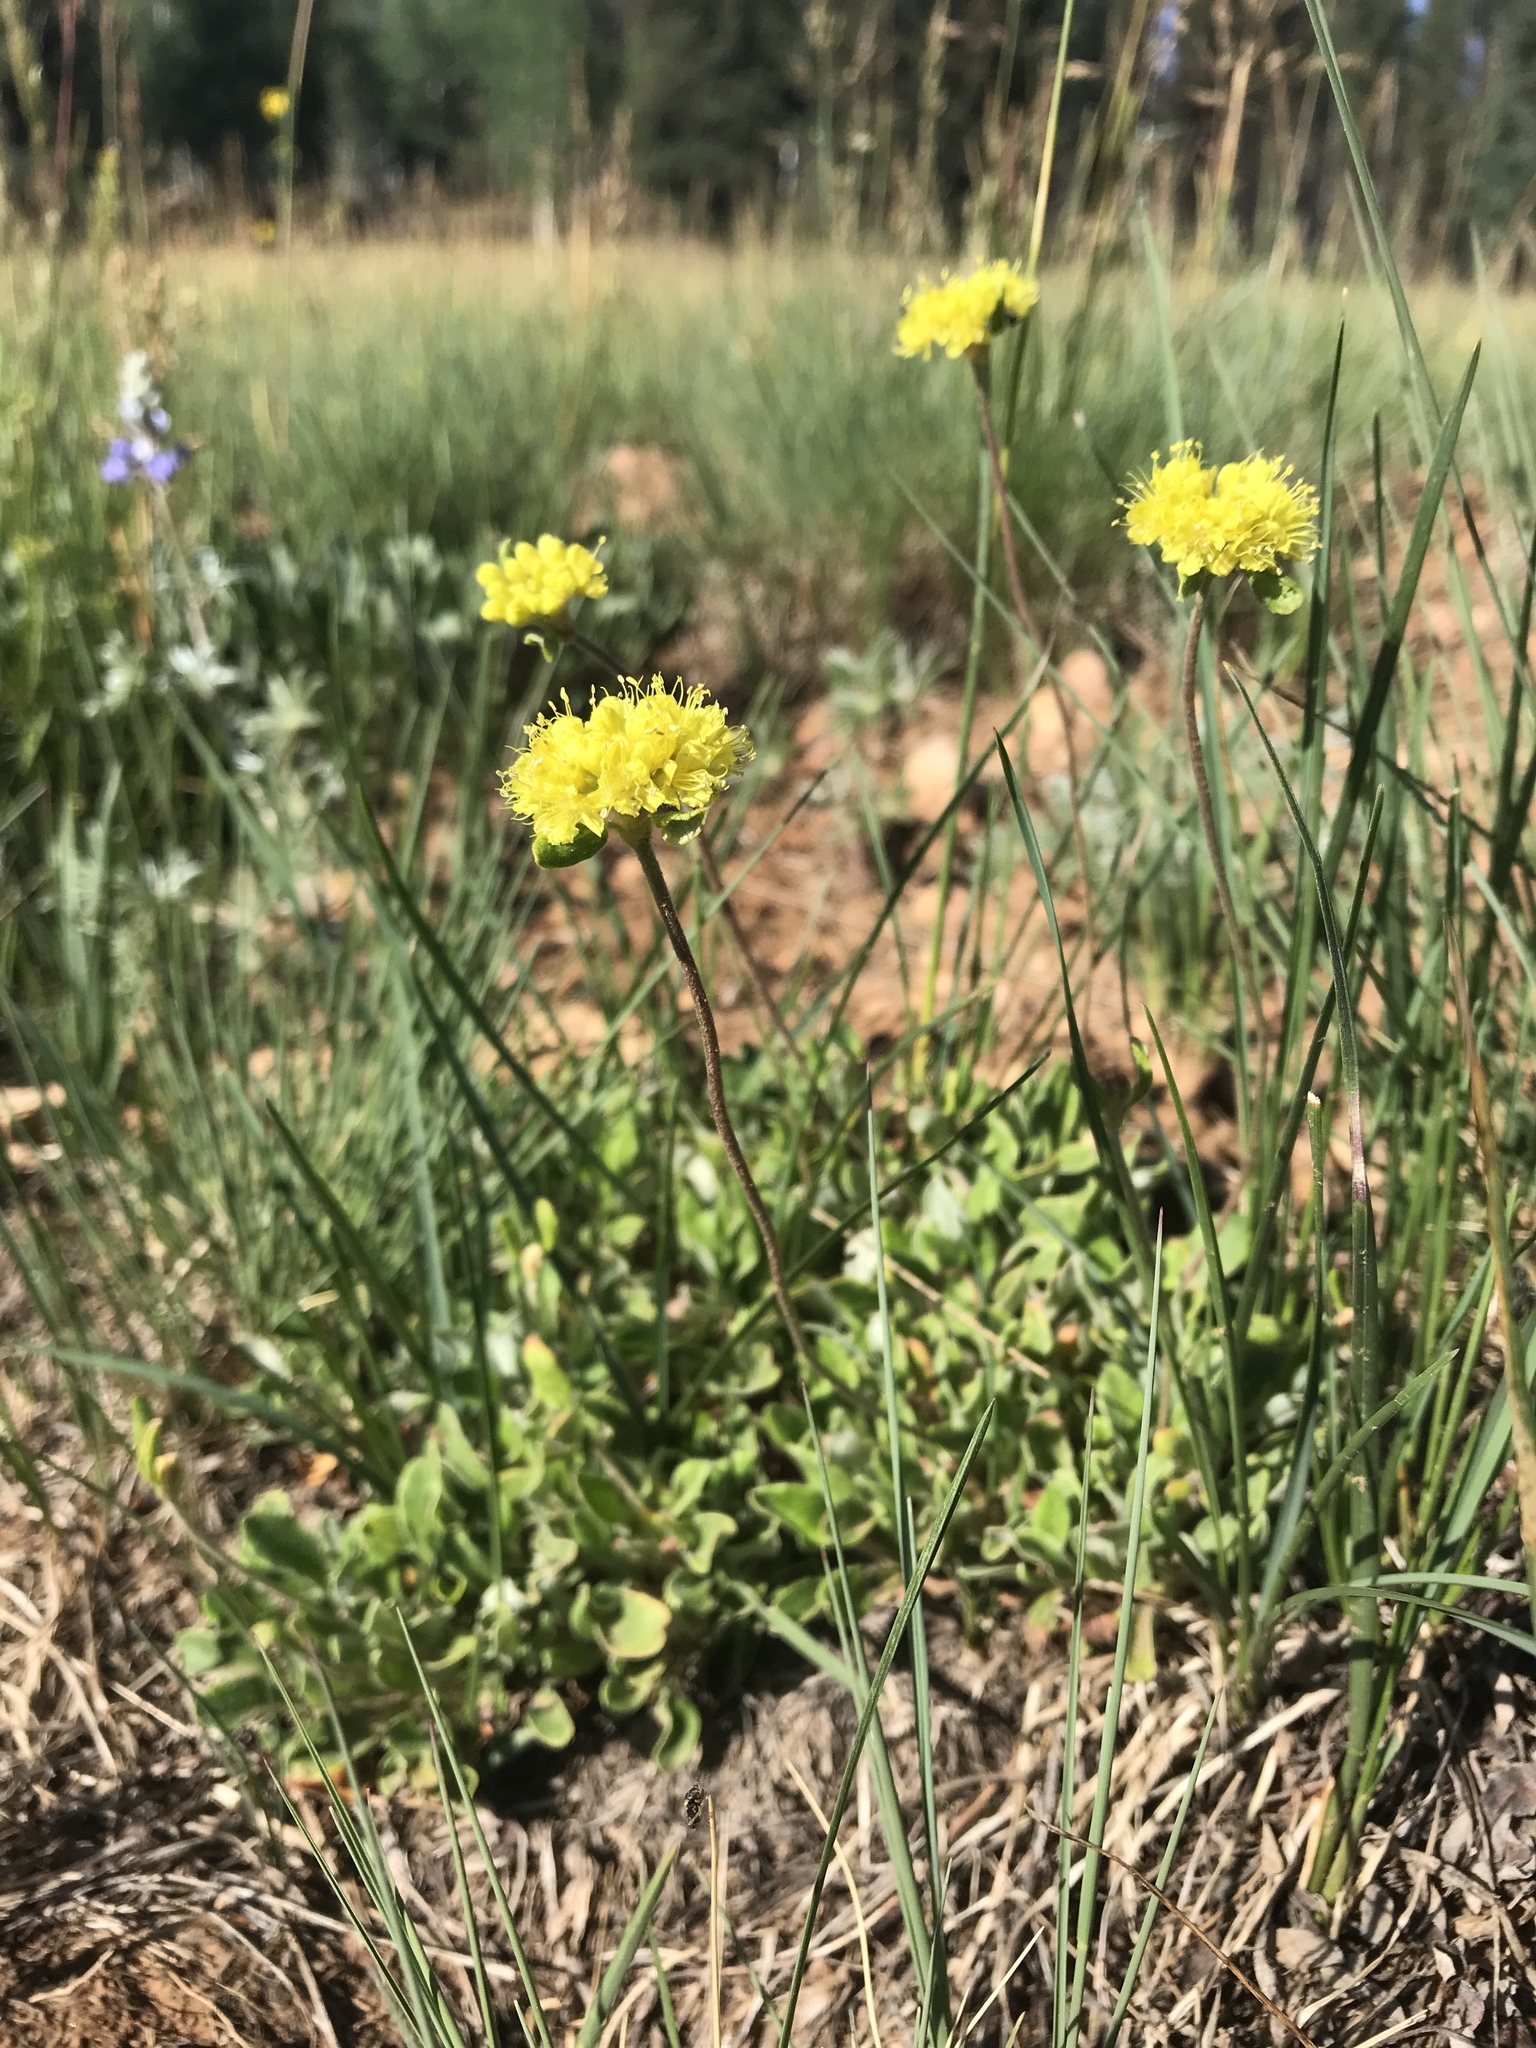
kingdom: Plantae
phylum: Tracheophyta
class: Magnoliopsida
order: Caryophyllales
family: Polygonaceae
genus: Eriogonum
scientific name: Eriogonum umbellatum
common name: Sulfur-buckwheat
